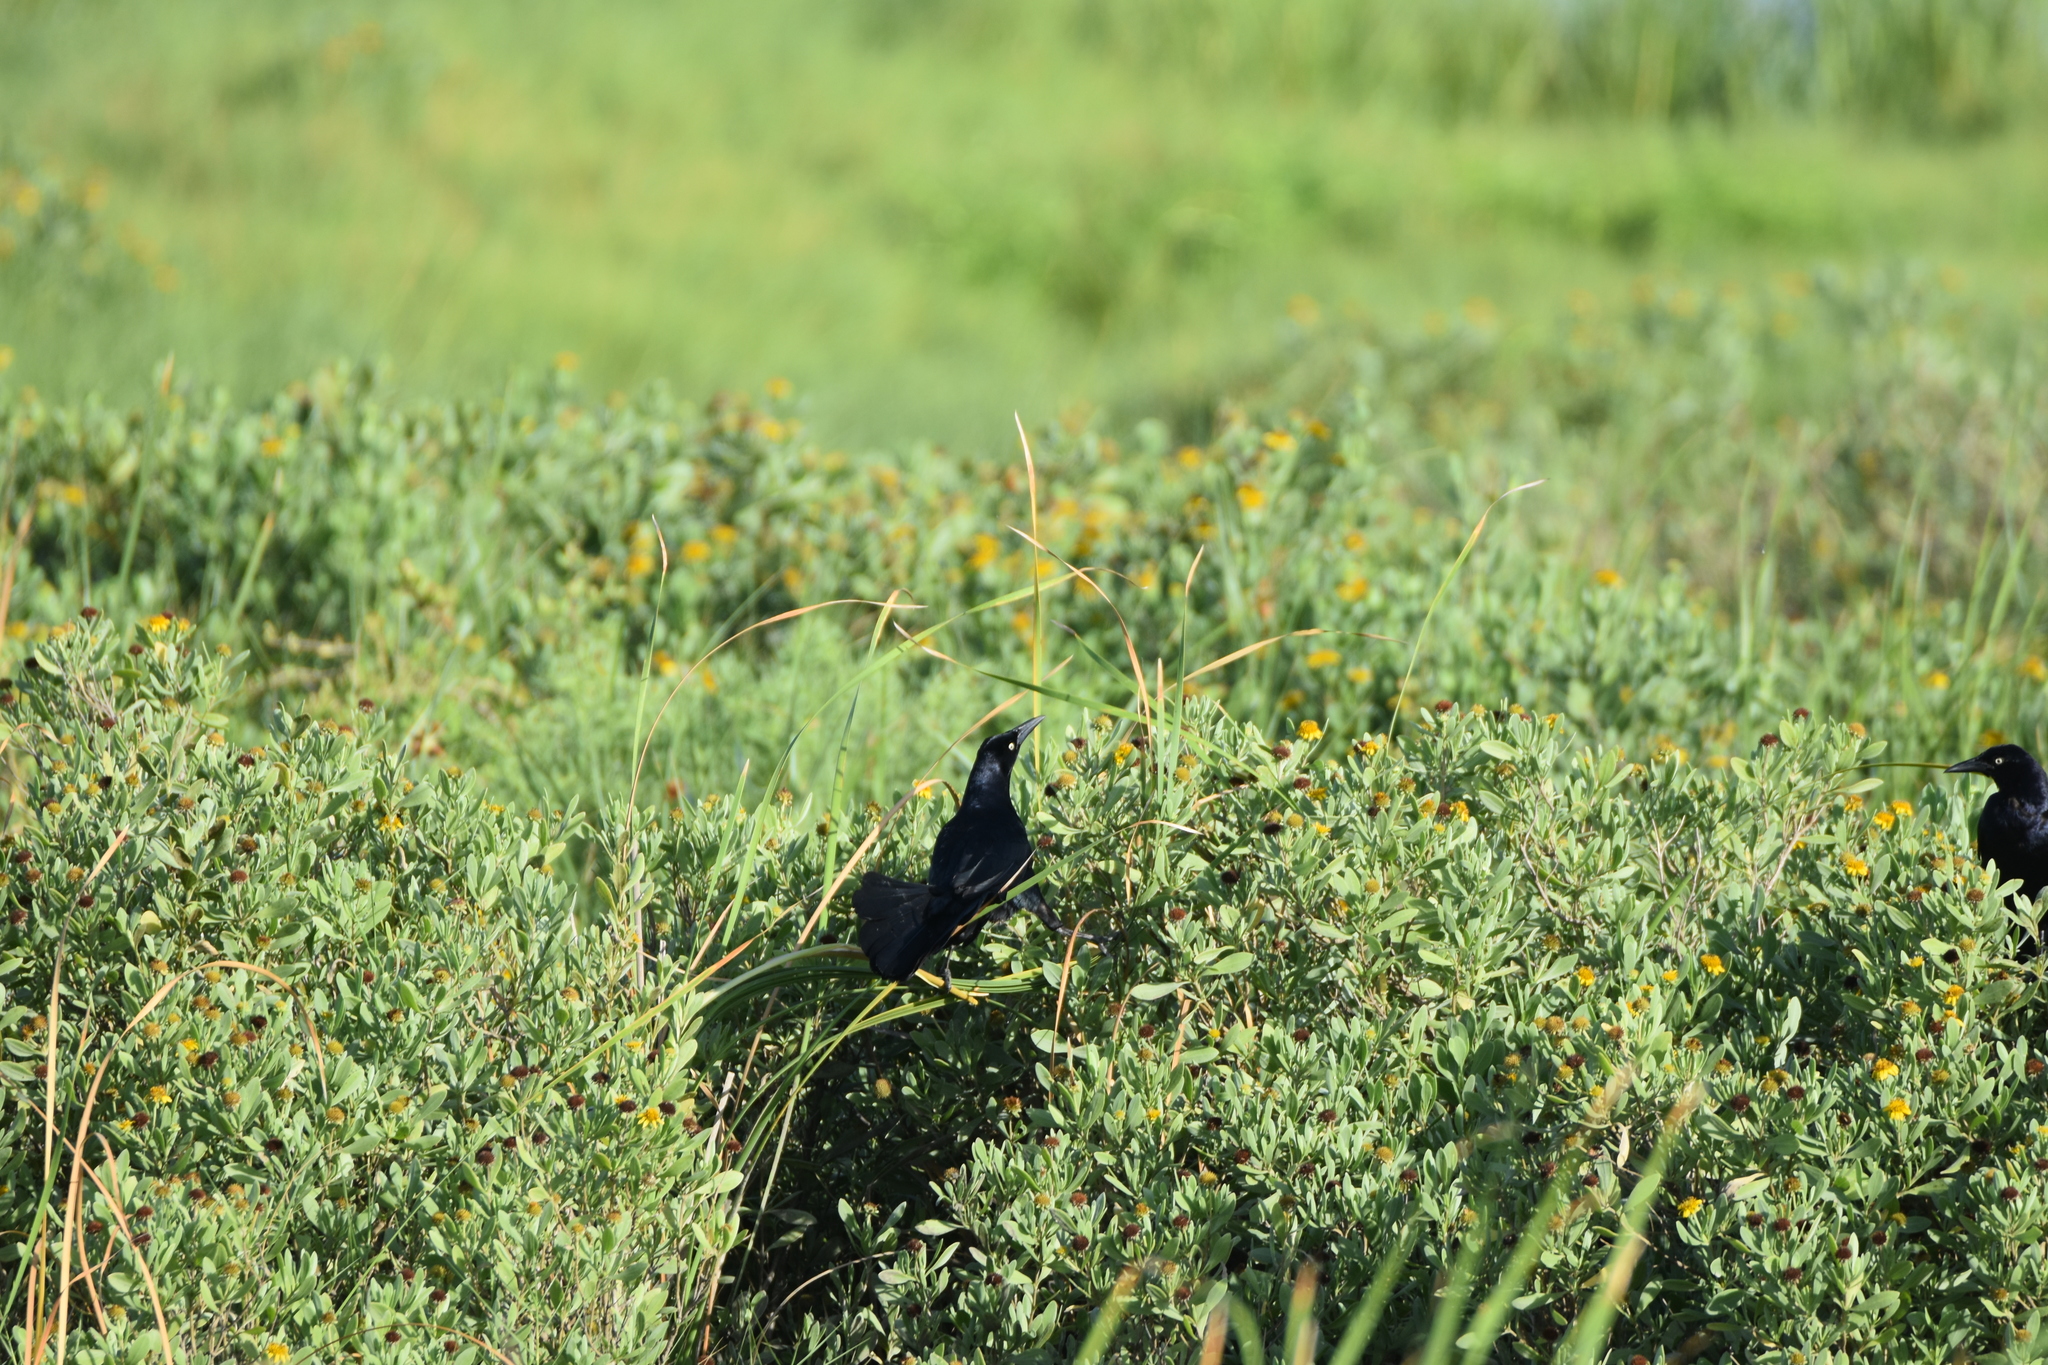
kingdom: Animalia
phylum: Chordata
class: Aves
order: Passeriformes
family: Icteridae
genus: Quiscalus
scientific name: Quiscalus mexicanus
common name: Great-tailed grackle
